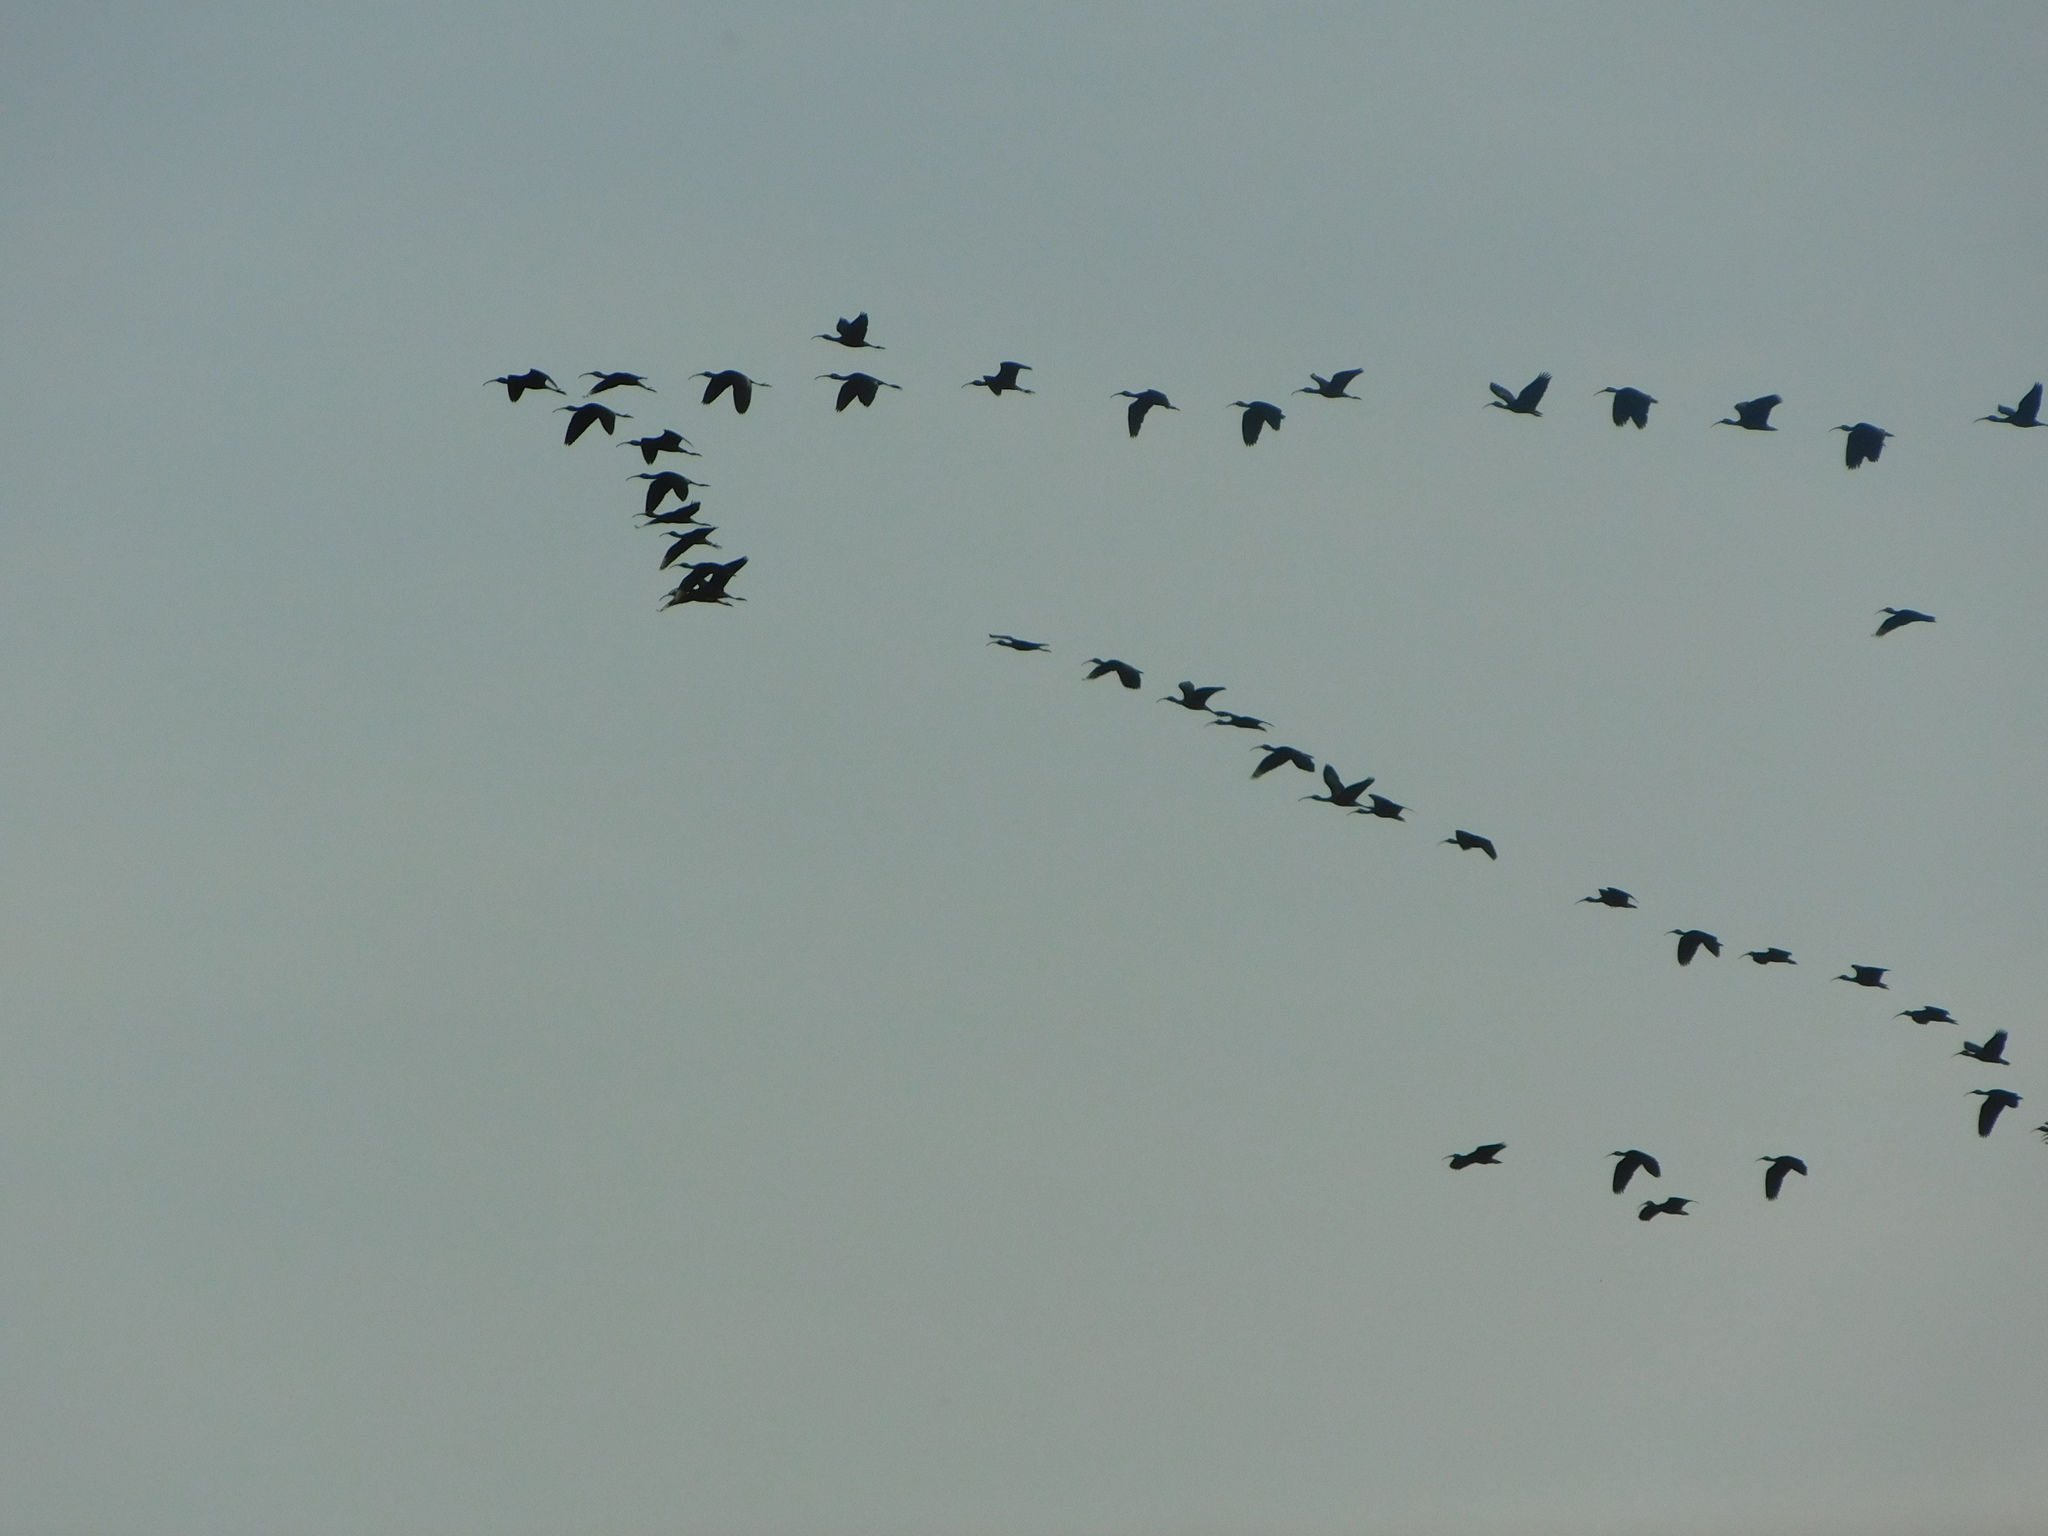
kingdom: Animalia
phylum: Chordata
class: Aves
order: Pelecaniformes
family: Threskiornithidae
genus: Plegadis
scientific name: Plegadis chihi
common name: White-faced ibis
